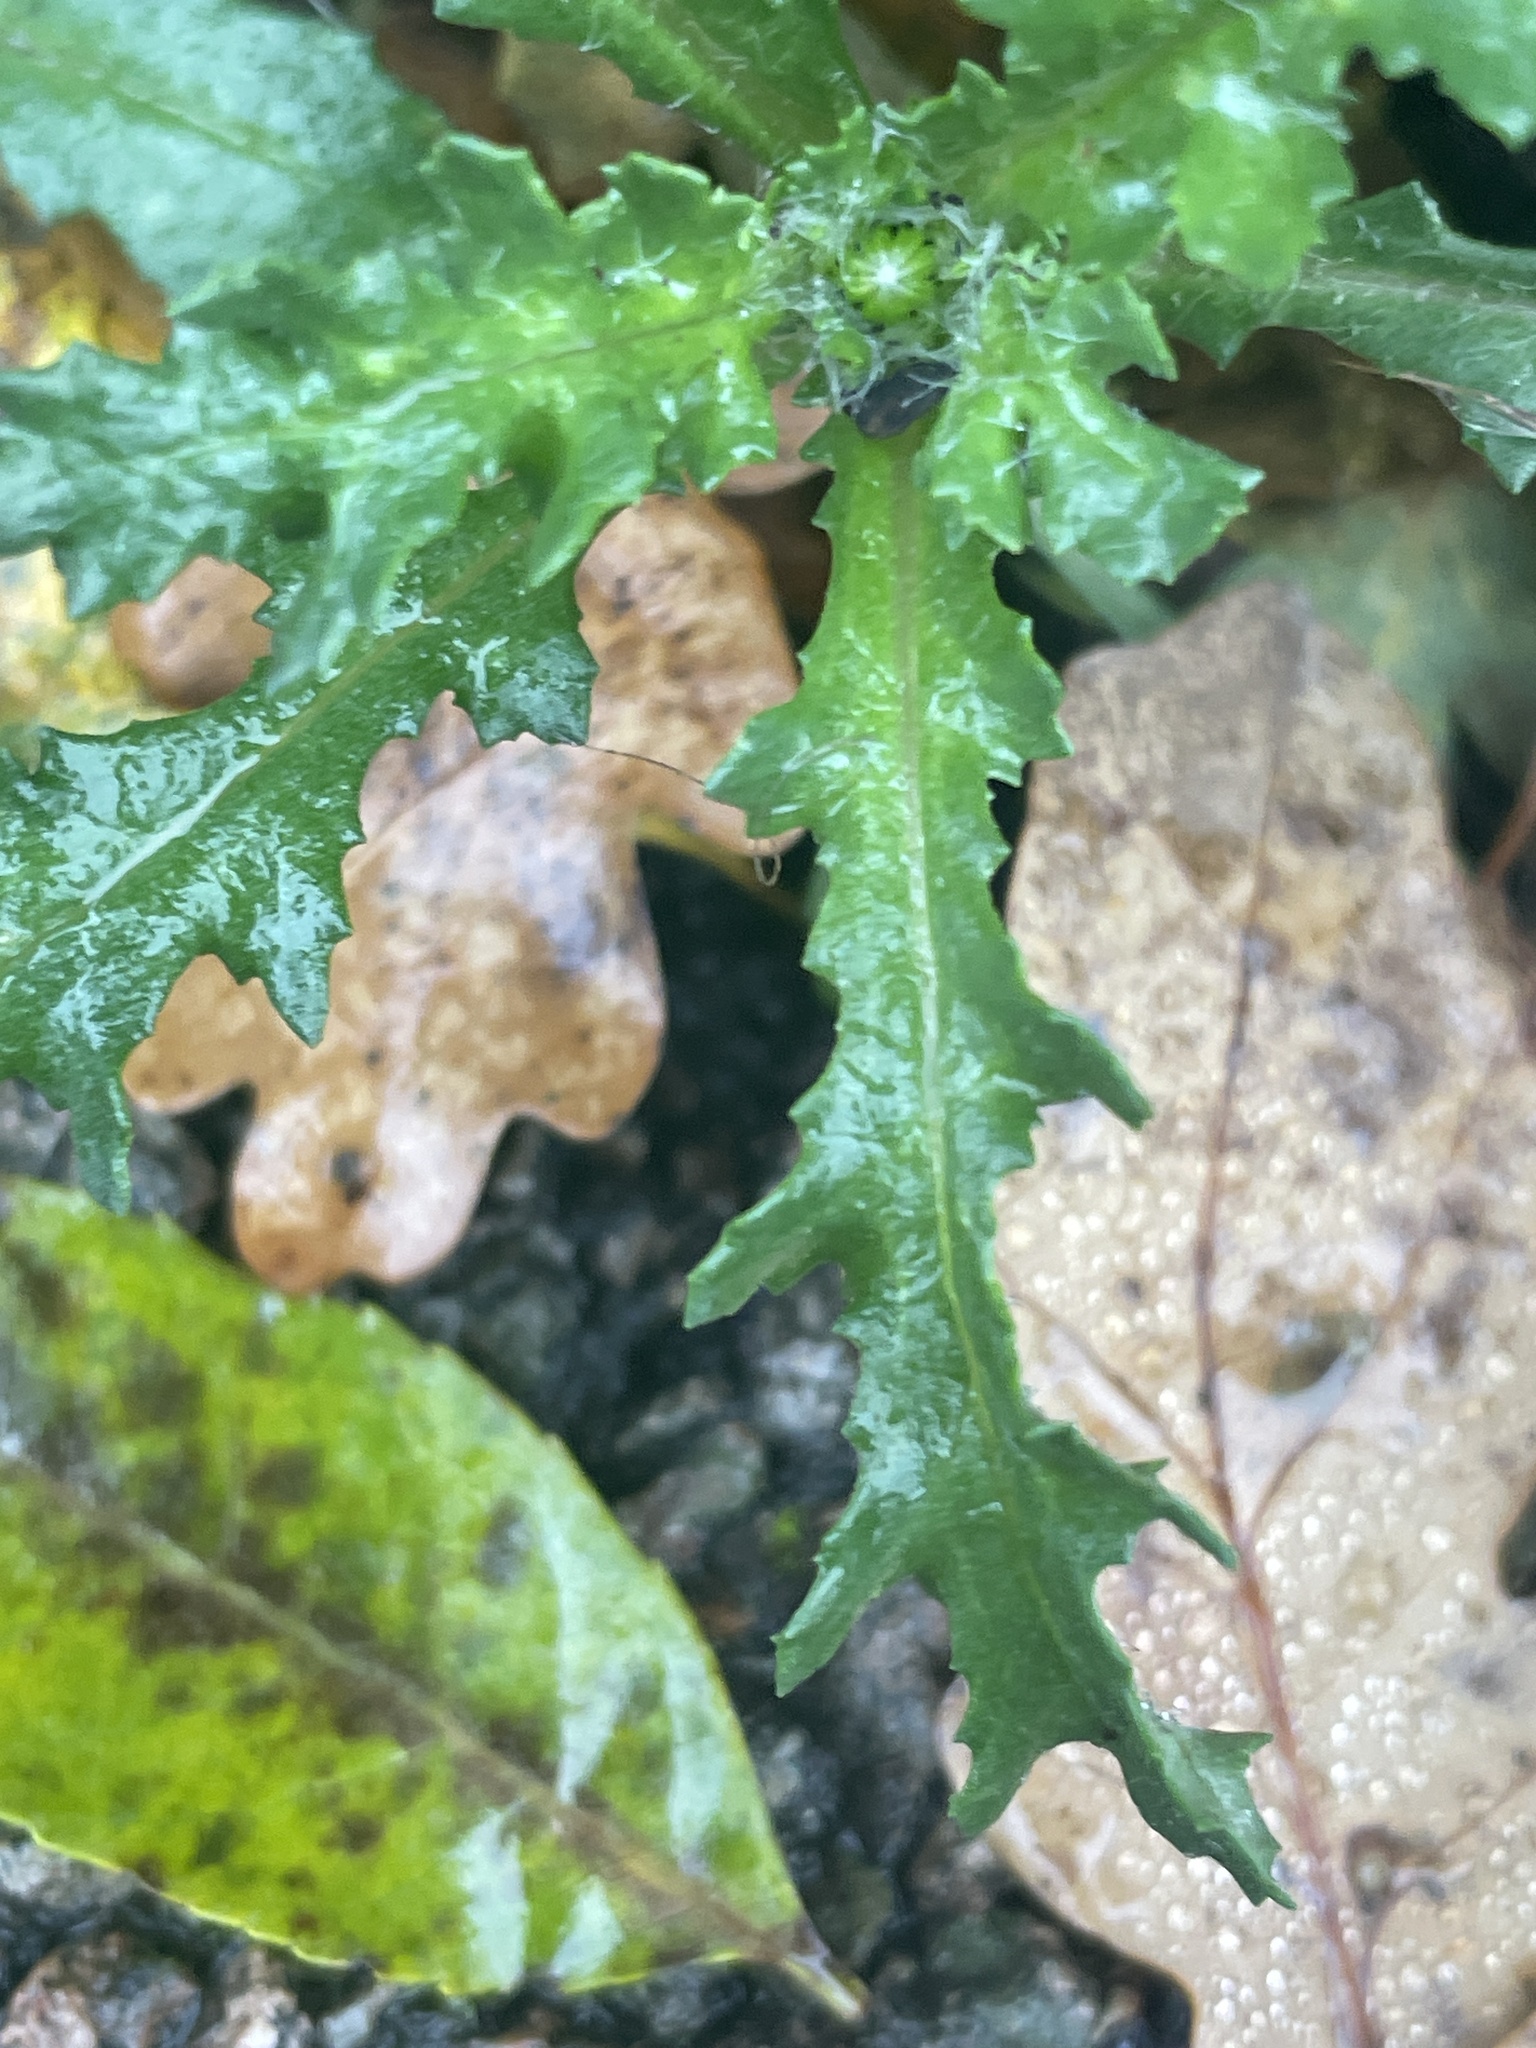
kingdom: Plantae
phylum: Tracheophyta
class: Magnoliopsida
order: Asterales
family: Asteraceae
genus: Senecio
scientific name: Senecio vulgaris
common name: Old-man-in-the-spring
